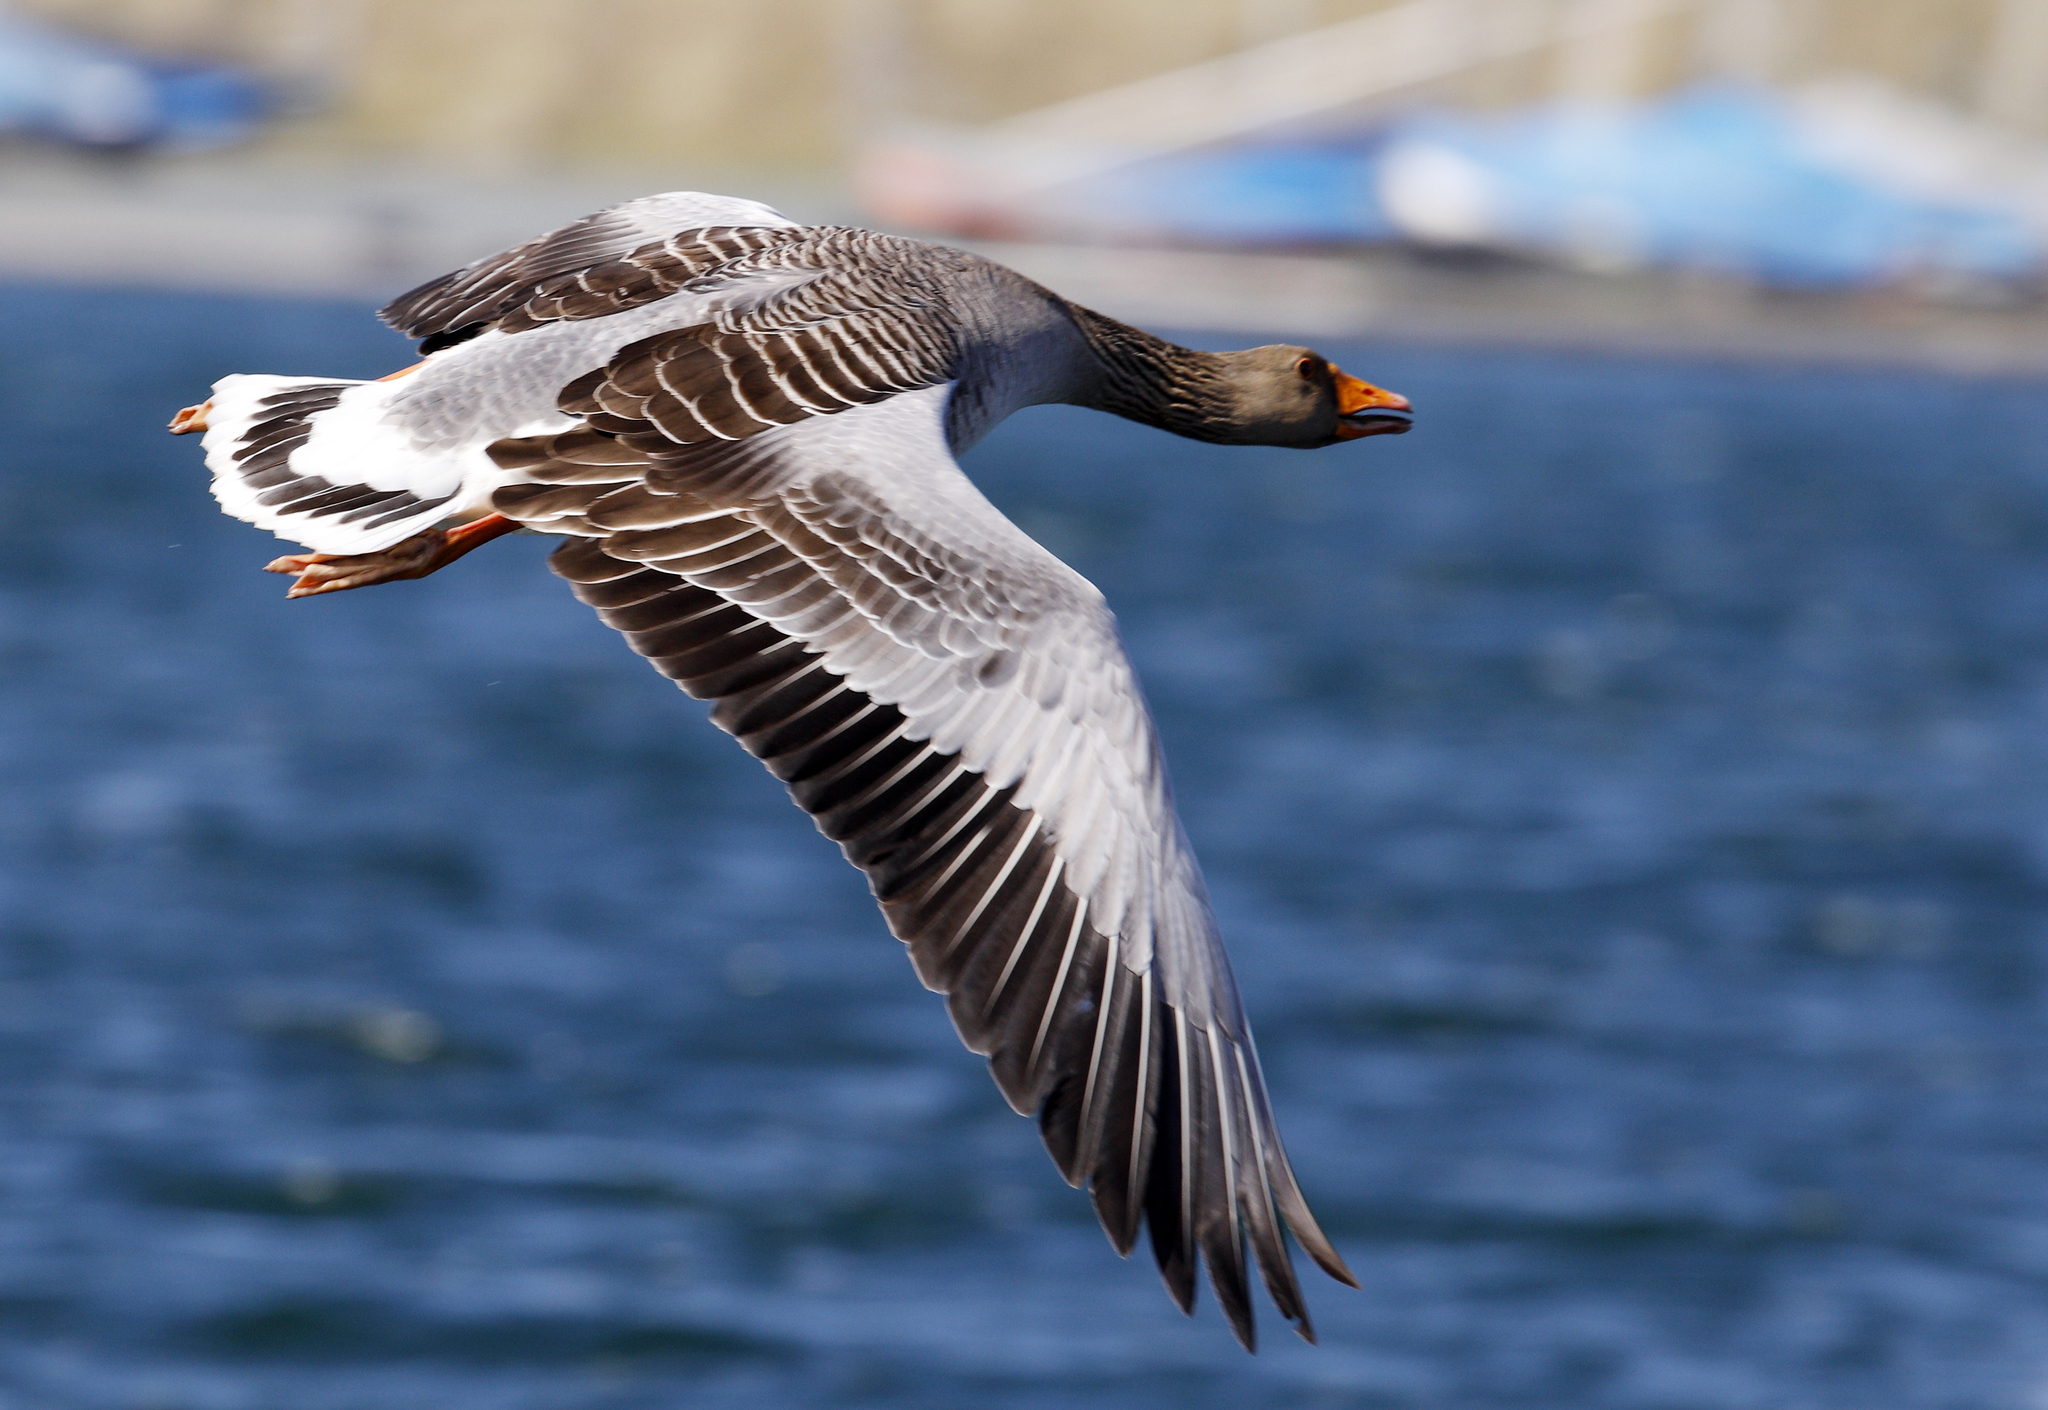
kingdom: Animalia
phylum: Chordata
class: Aves
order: Anseriformes
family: Anatidae
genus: Anser
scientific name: Anser anser
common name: Greylag goose
